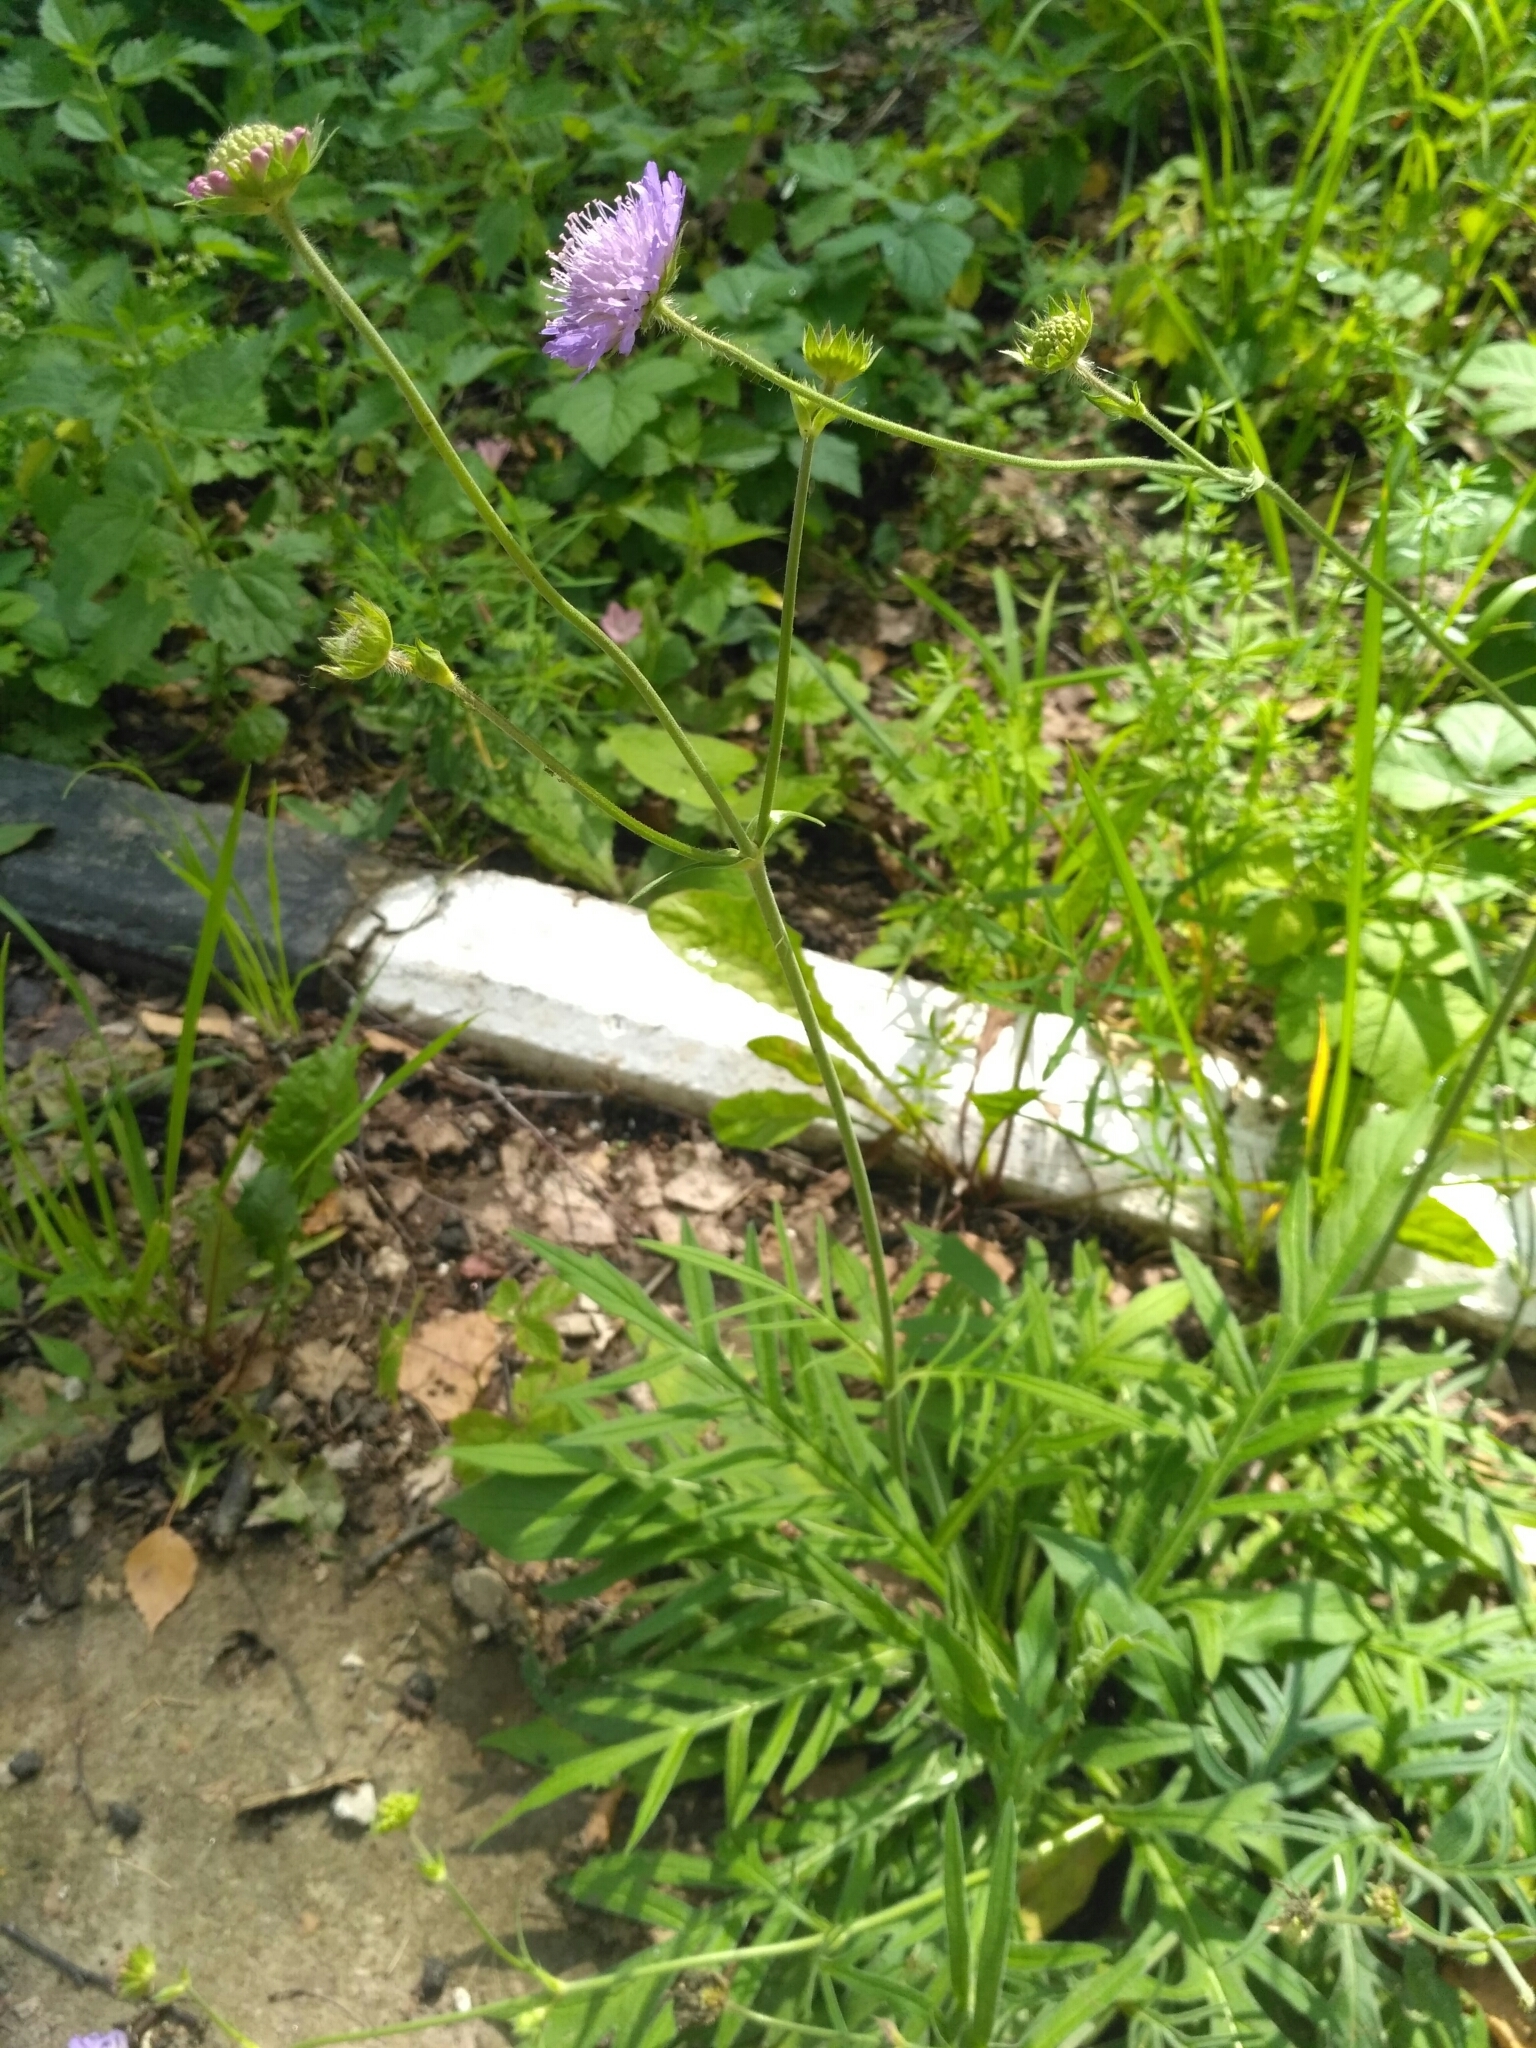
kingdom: Plantae
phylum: Tracheophyta
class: Magnoliopsida
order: Dipsacales
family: Caprifoliaceae
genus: Knautia
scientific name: Knautia arvensis
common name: Field scabiosa
